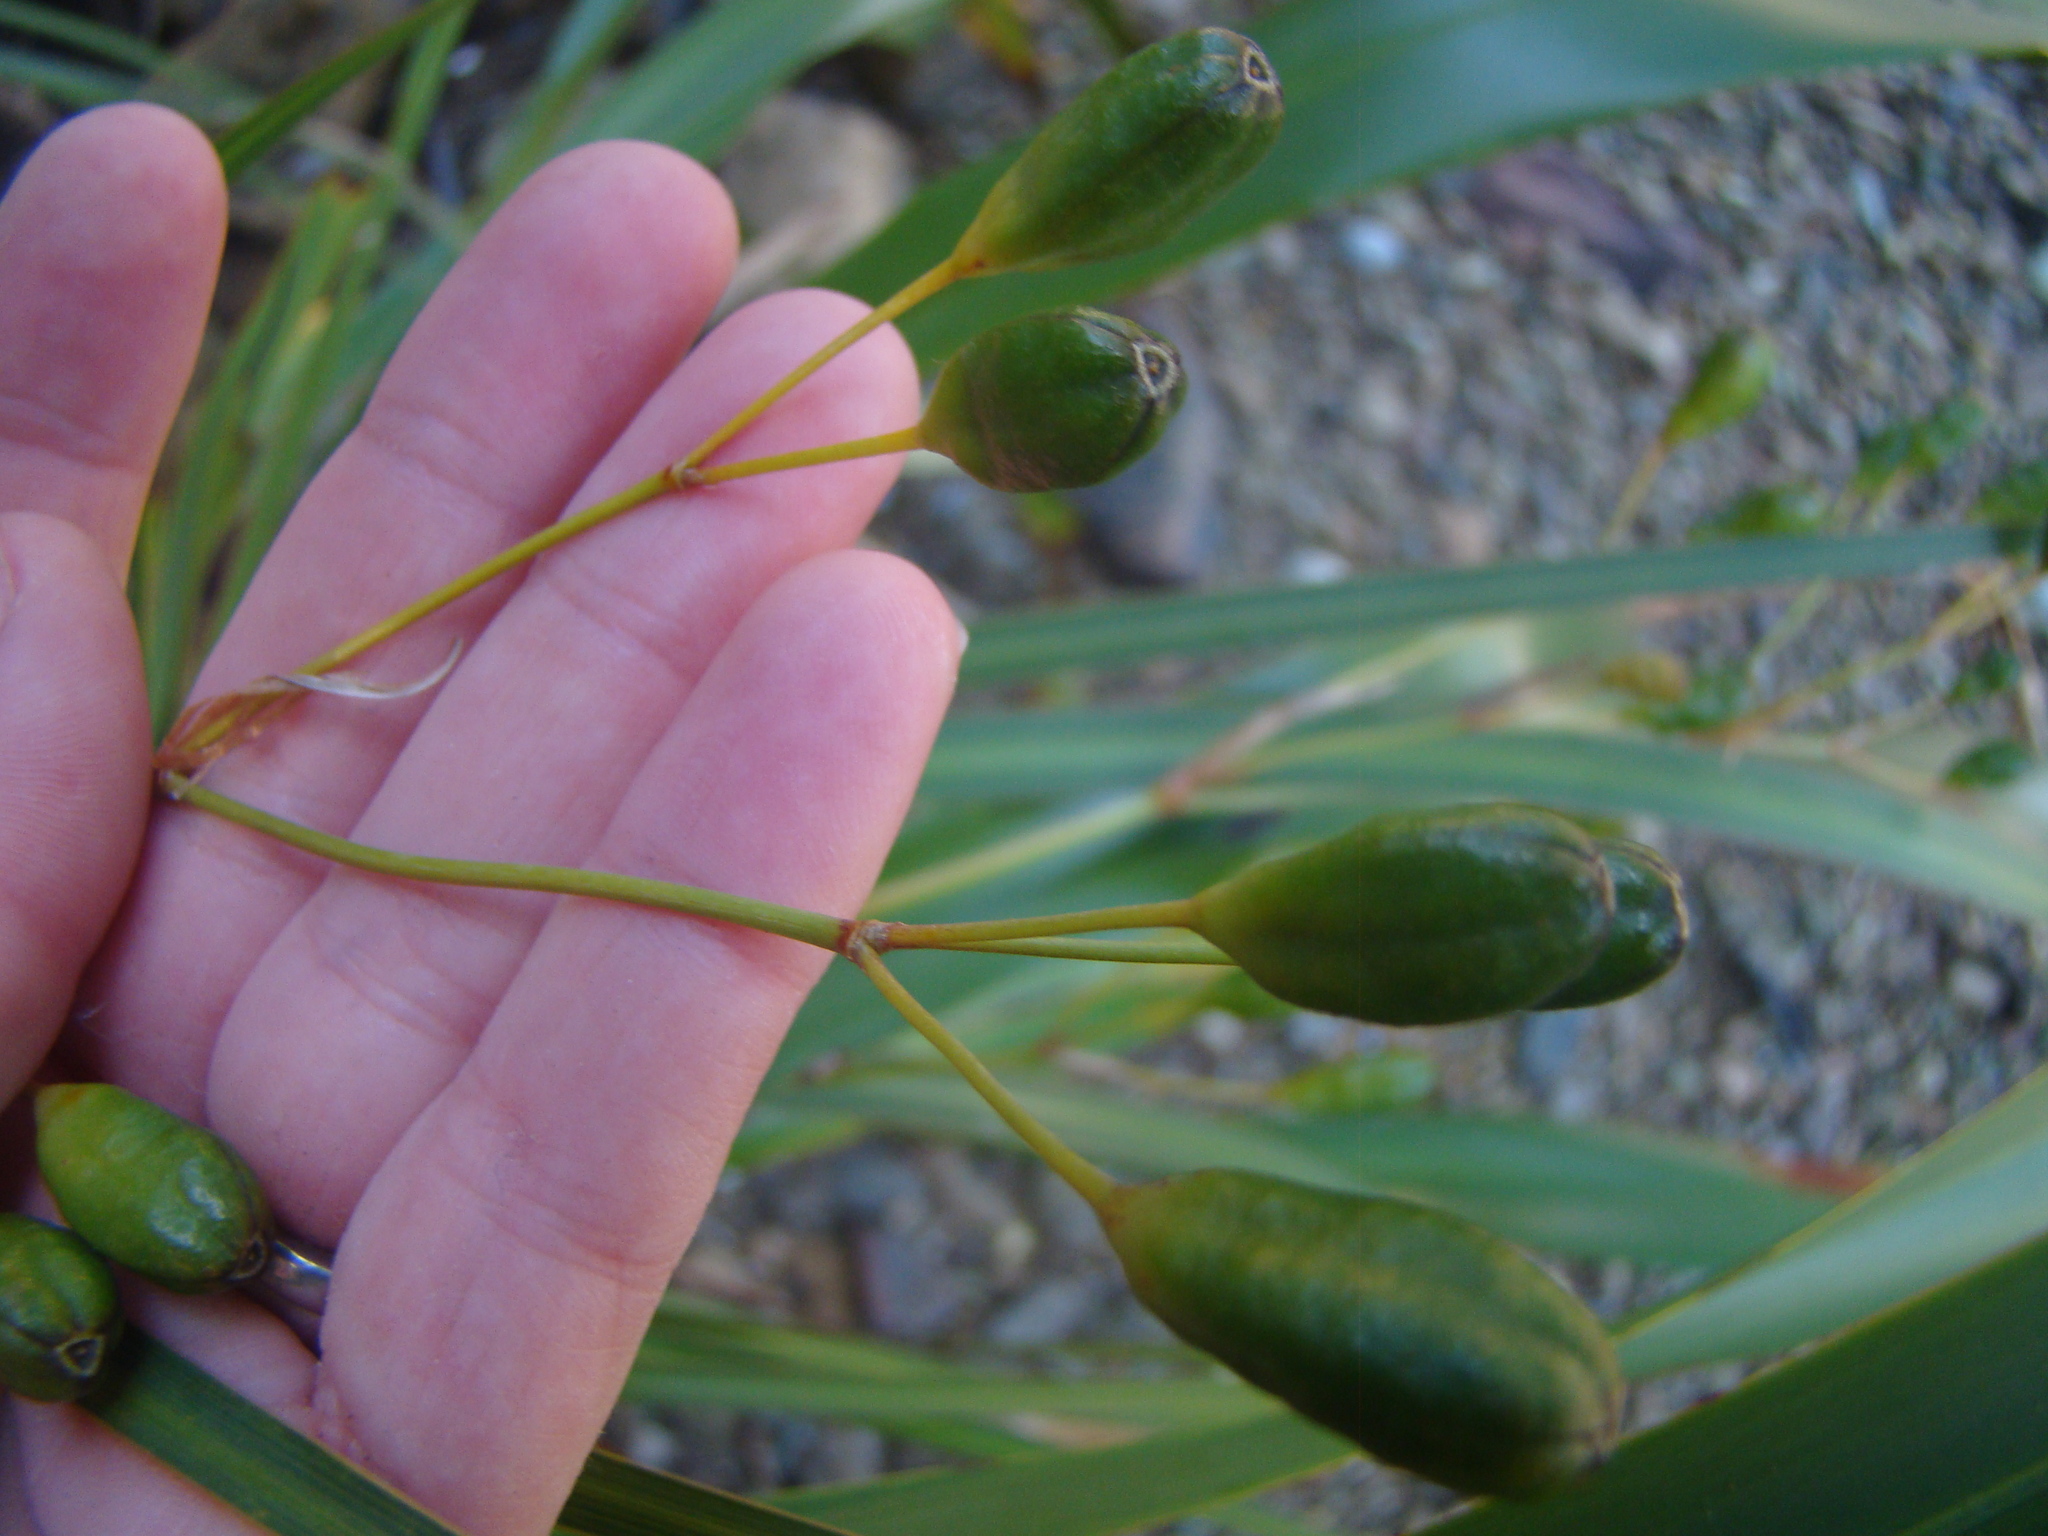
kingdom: Plantae
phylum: Tracheophyta
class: Liliopsida
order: Asparagales
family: Iridaceae
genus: Libertia
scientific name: Libertia ixioides
